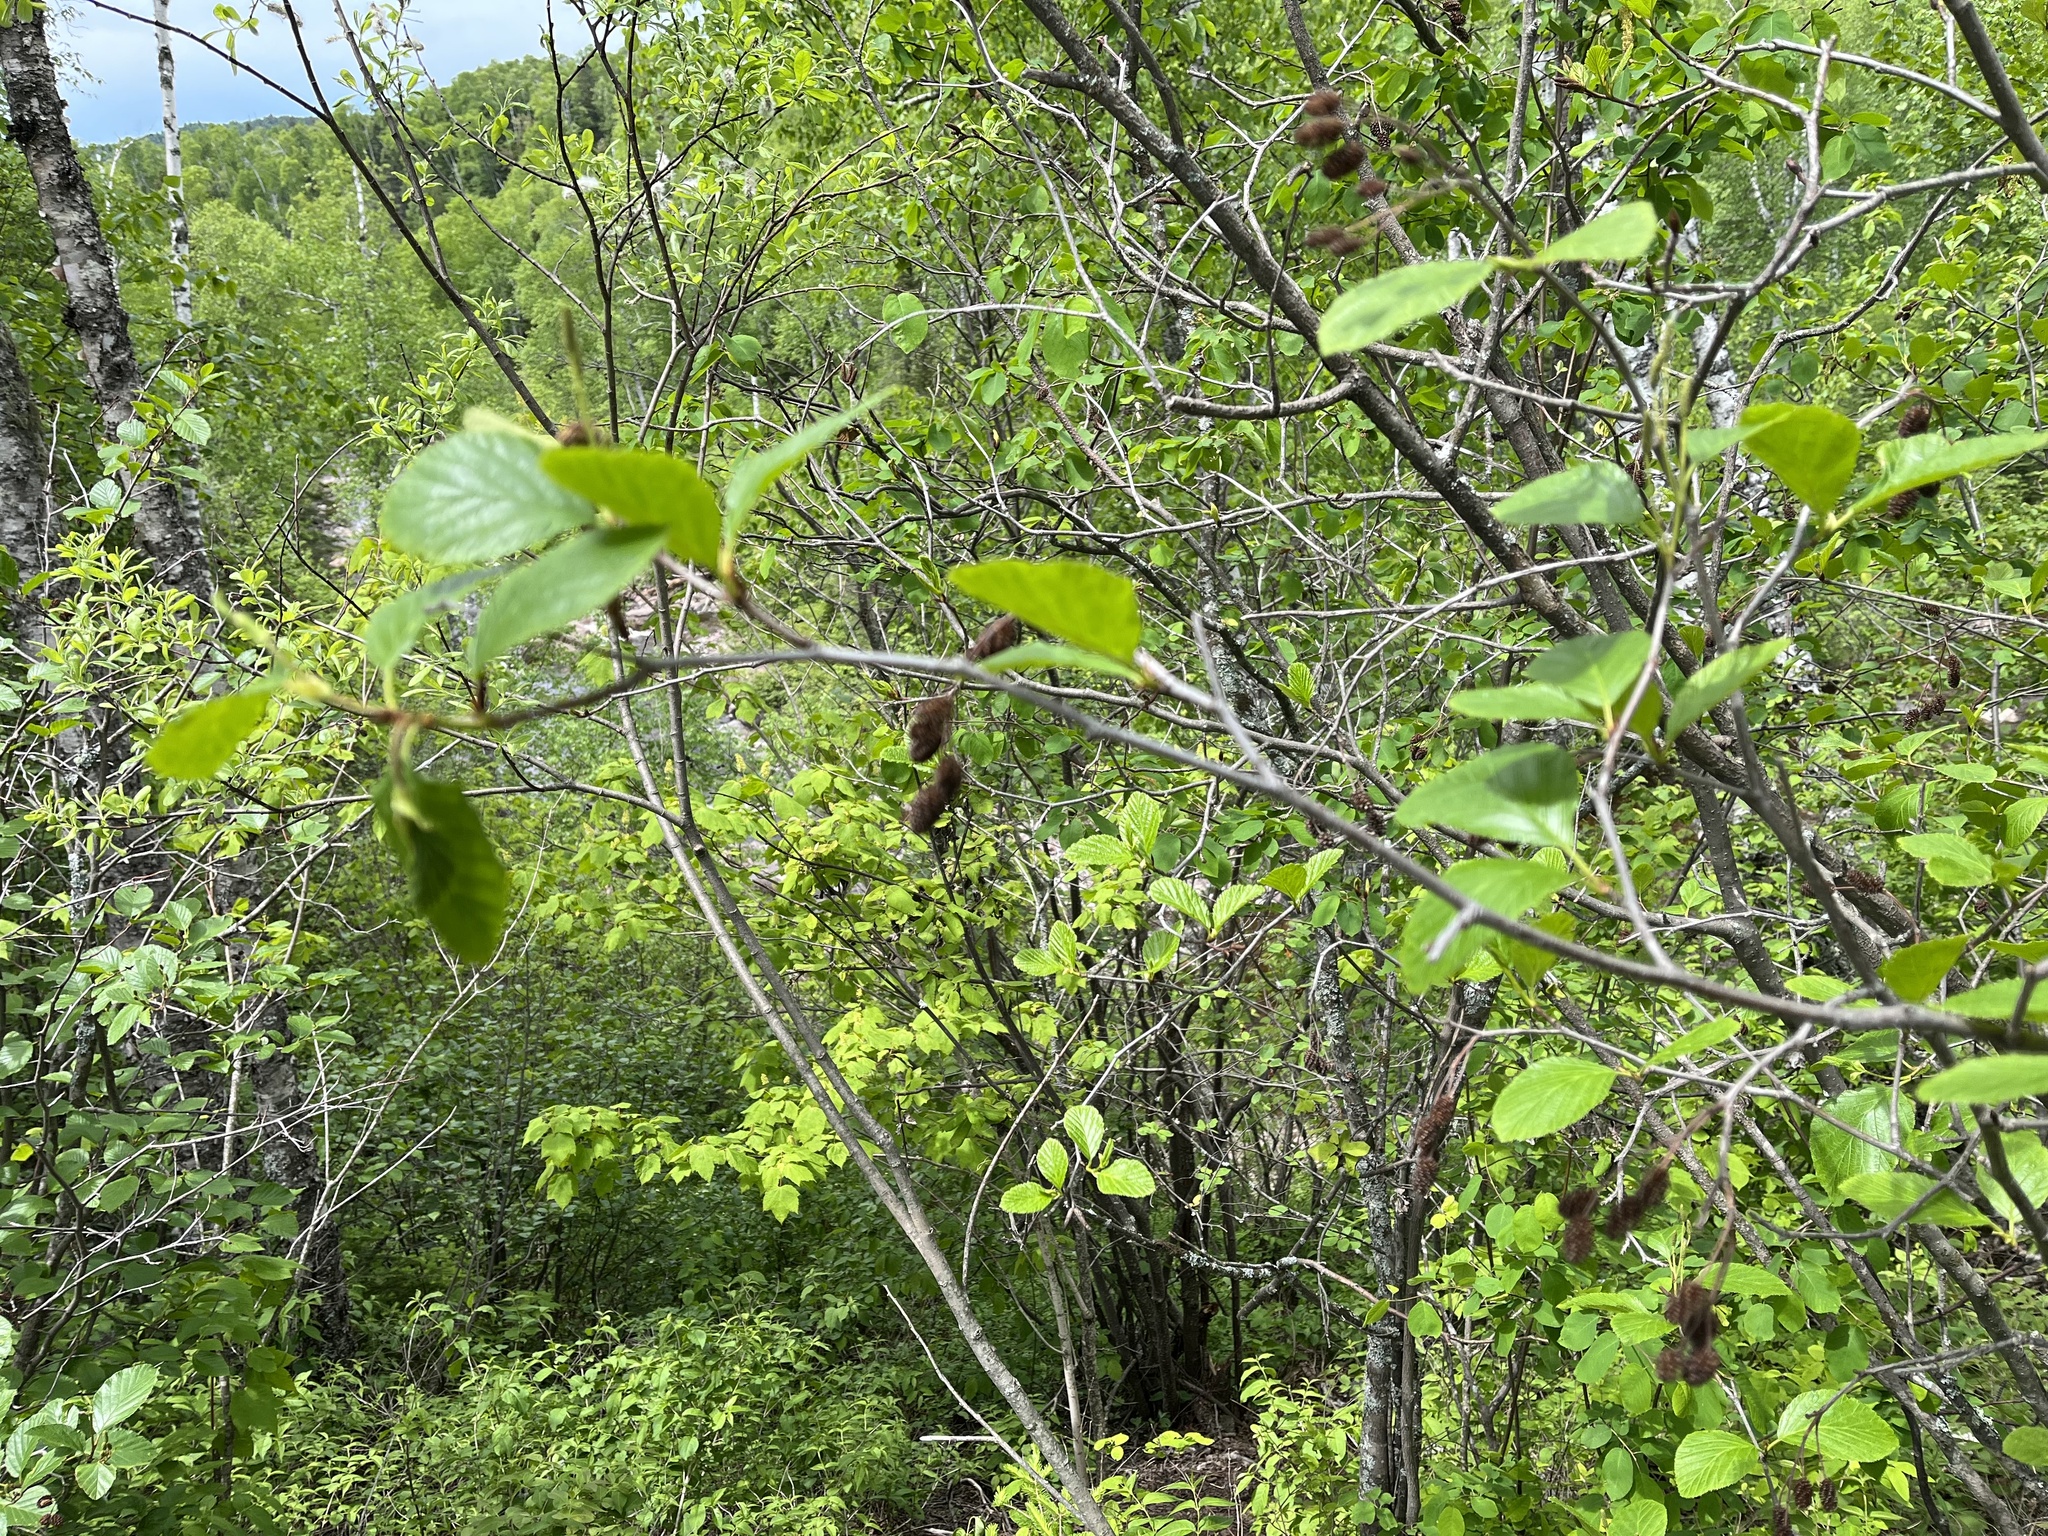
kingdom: Plantae
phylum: Tracheophyta
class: Magnoliopsida
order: Fagales
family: Betulaceae
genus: Alnus
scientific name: Alnus alnobetula
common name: Green alder
